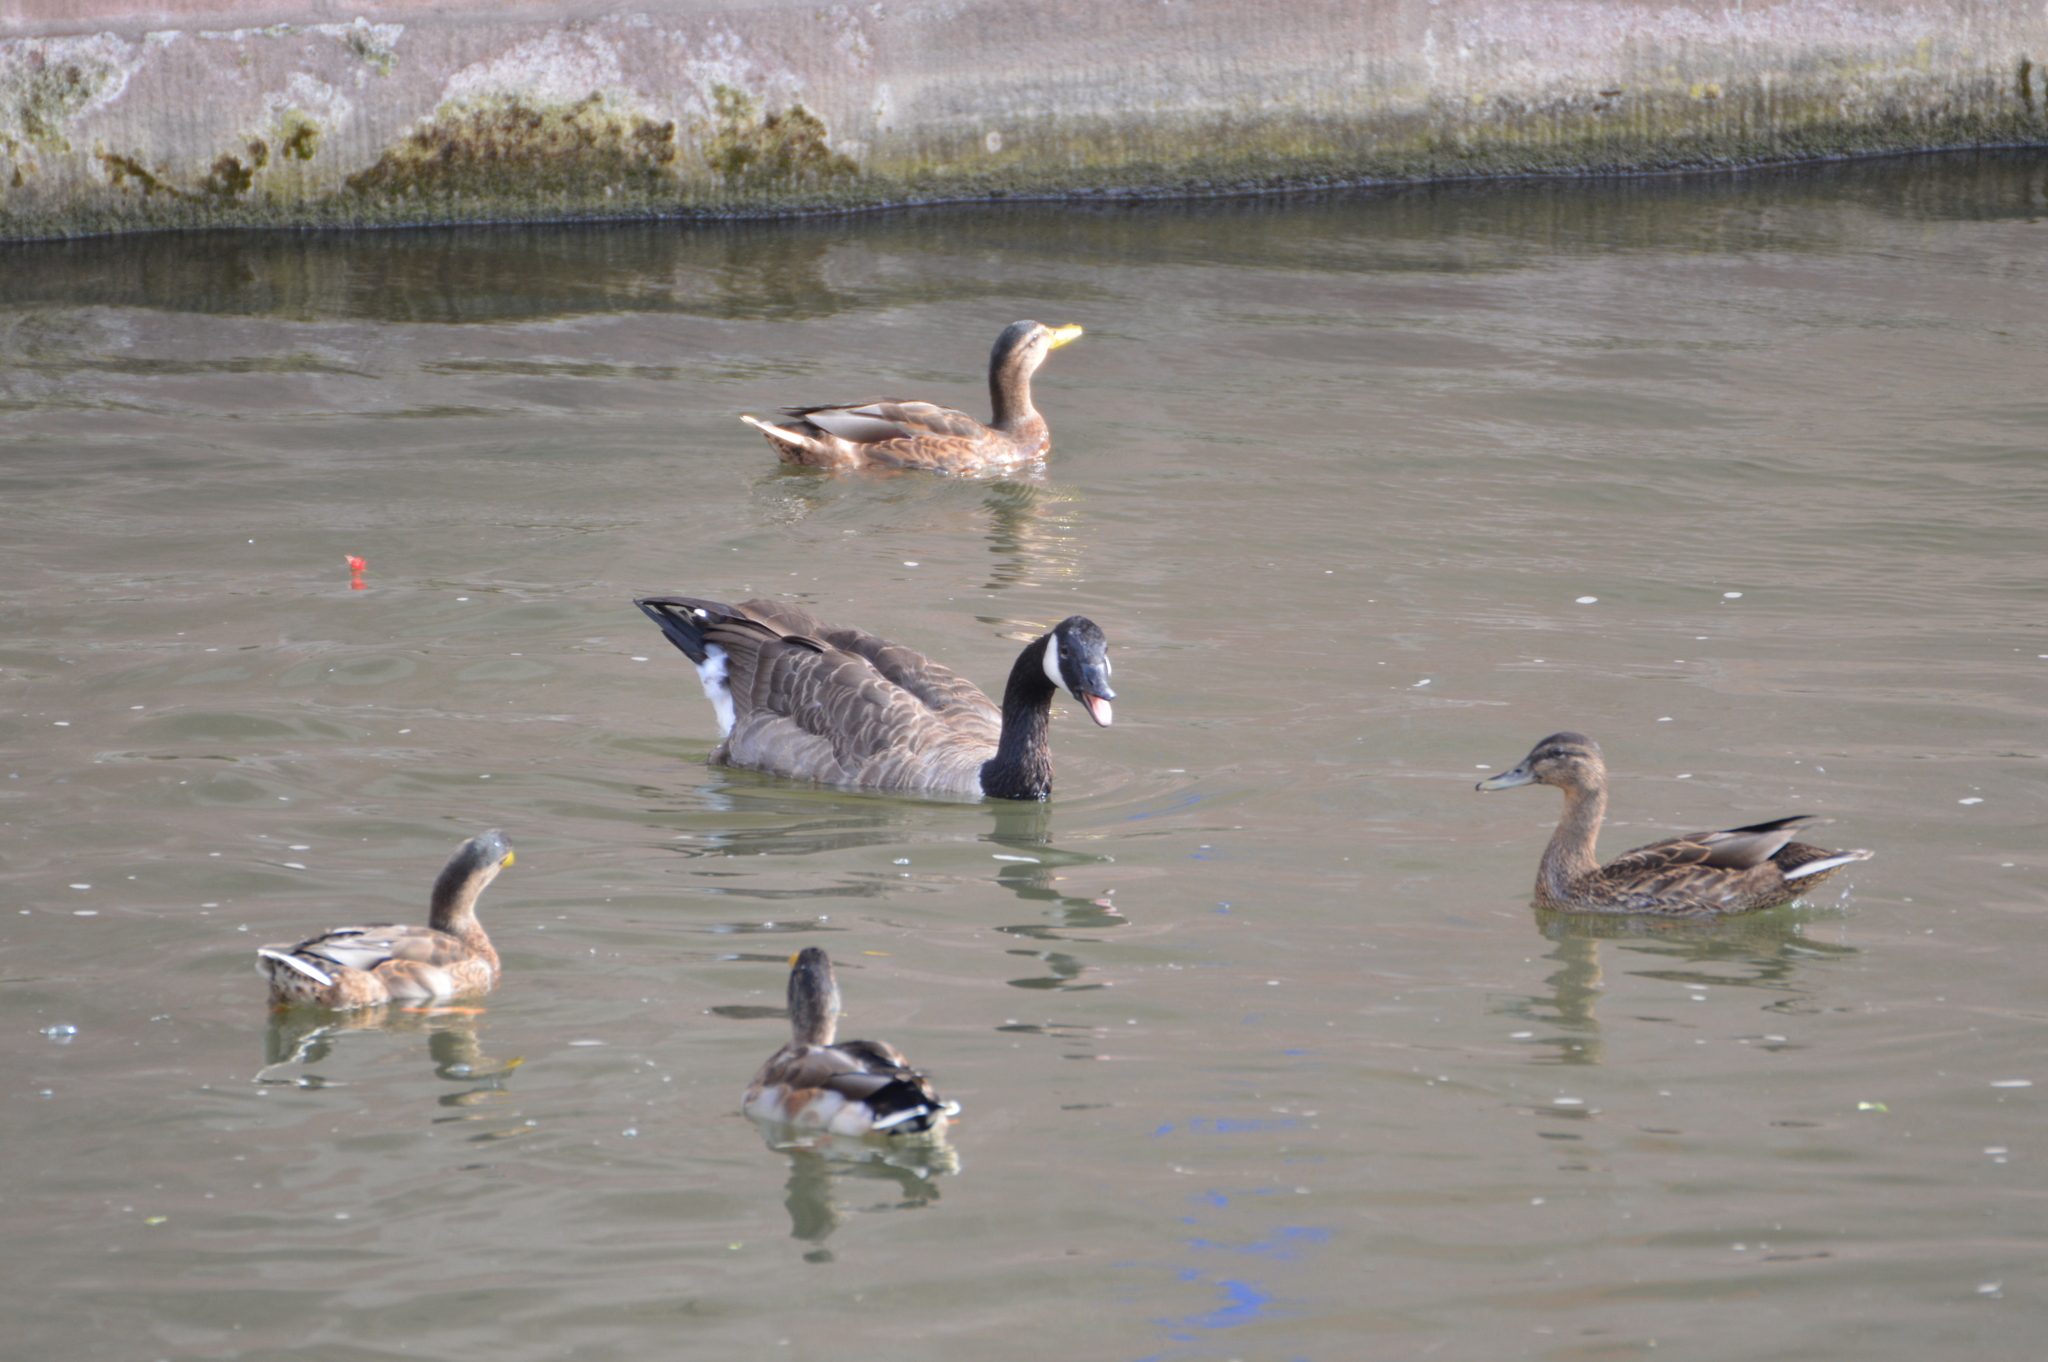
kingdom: Animalia
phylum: Chordata
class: Aves
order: Anseriformes
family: Anatidae
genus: Branta
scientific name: Branta canadensis
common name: Canada goose
